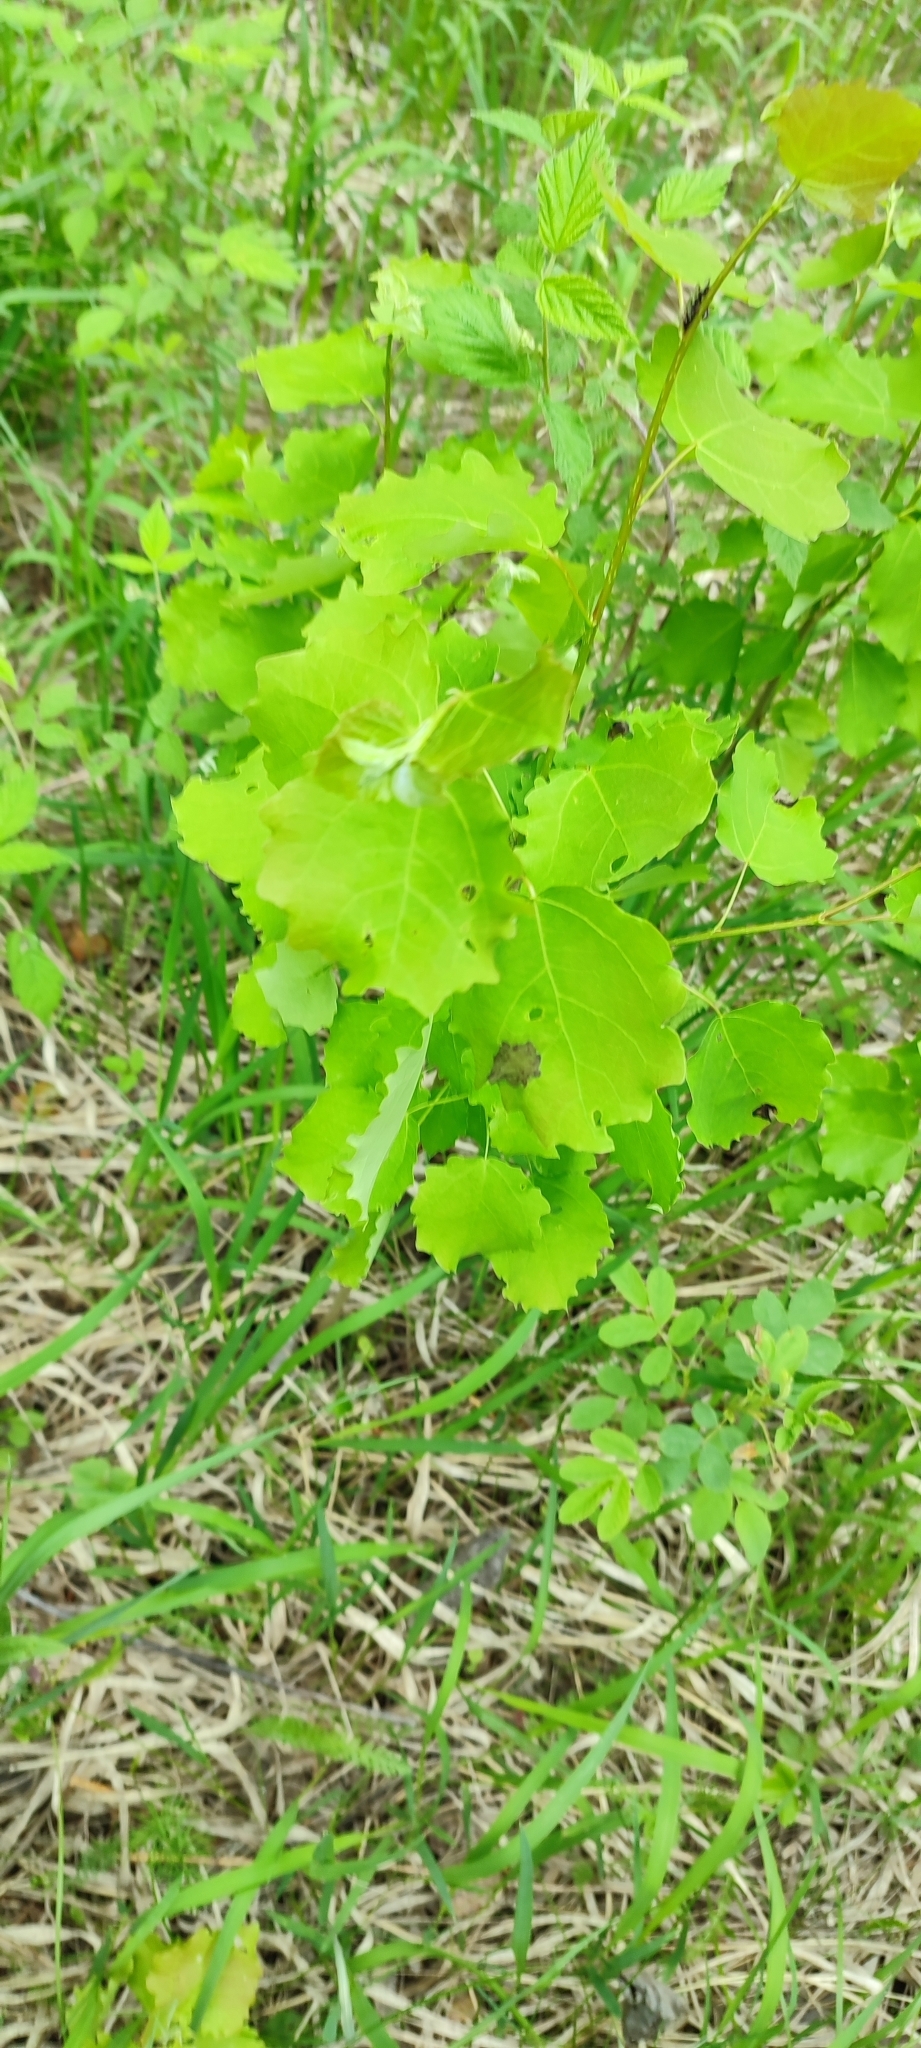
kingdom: Plantae
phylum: Tracheophyta
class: Magnoliopsida
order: Malpighiales
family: Salicaceae
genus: Populus
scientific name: Populus tremula
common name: European aspen
